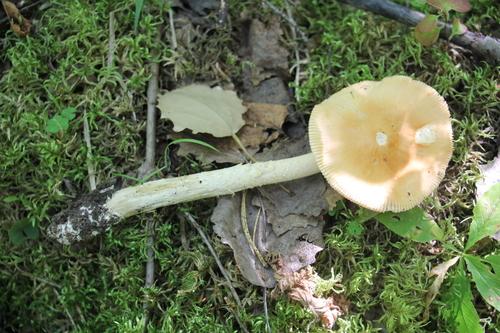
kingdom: Fungi
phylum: Basidiomycota
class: Agaricomycetes
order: Agaricales
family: Amanitaceae
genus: Amanita
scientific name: Amanita crocea
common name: Orange grisette
